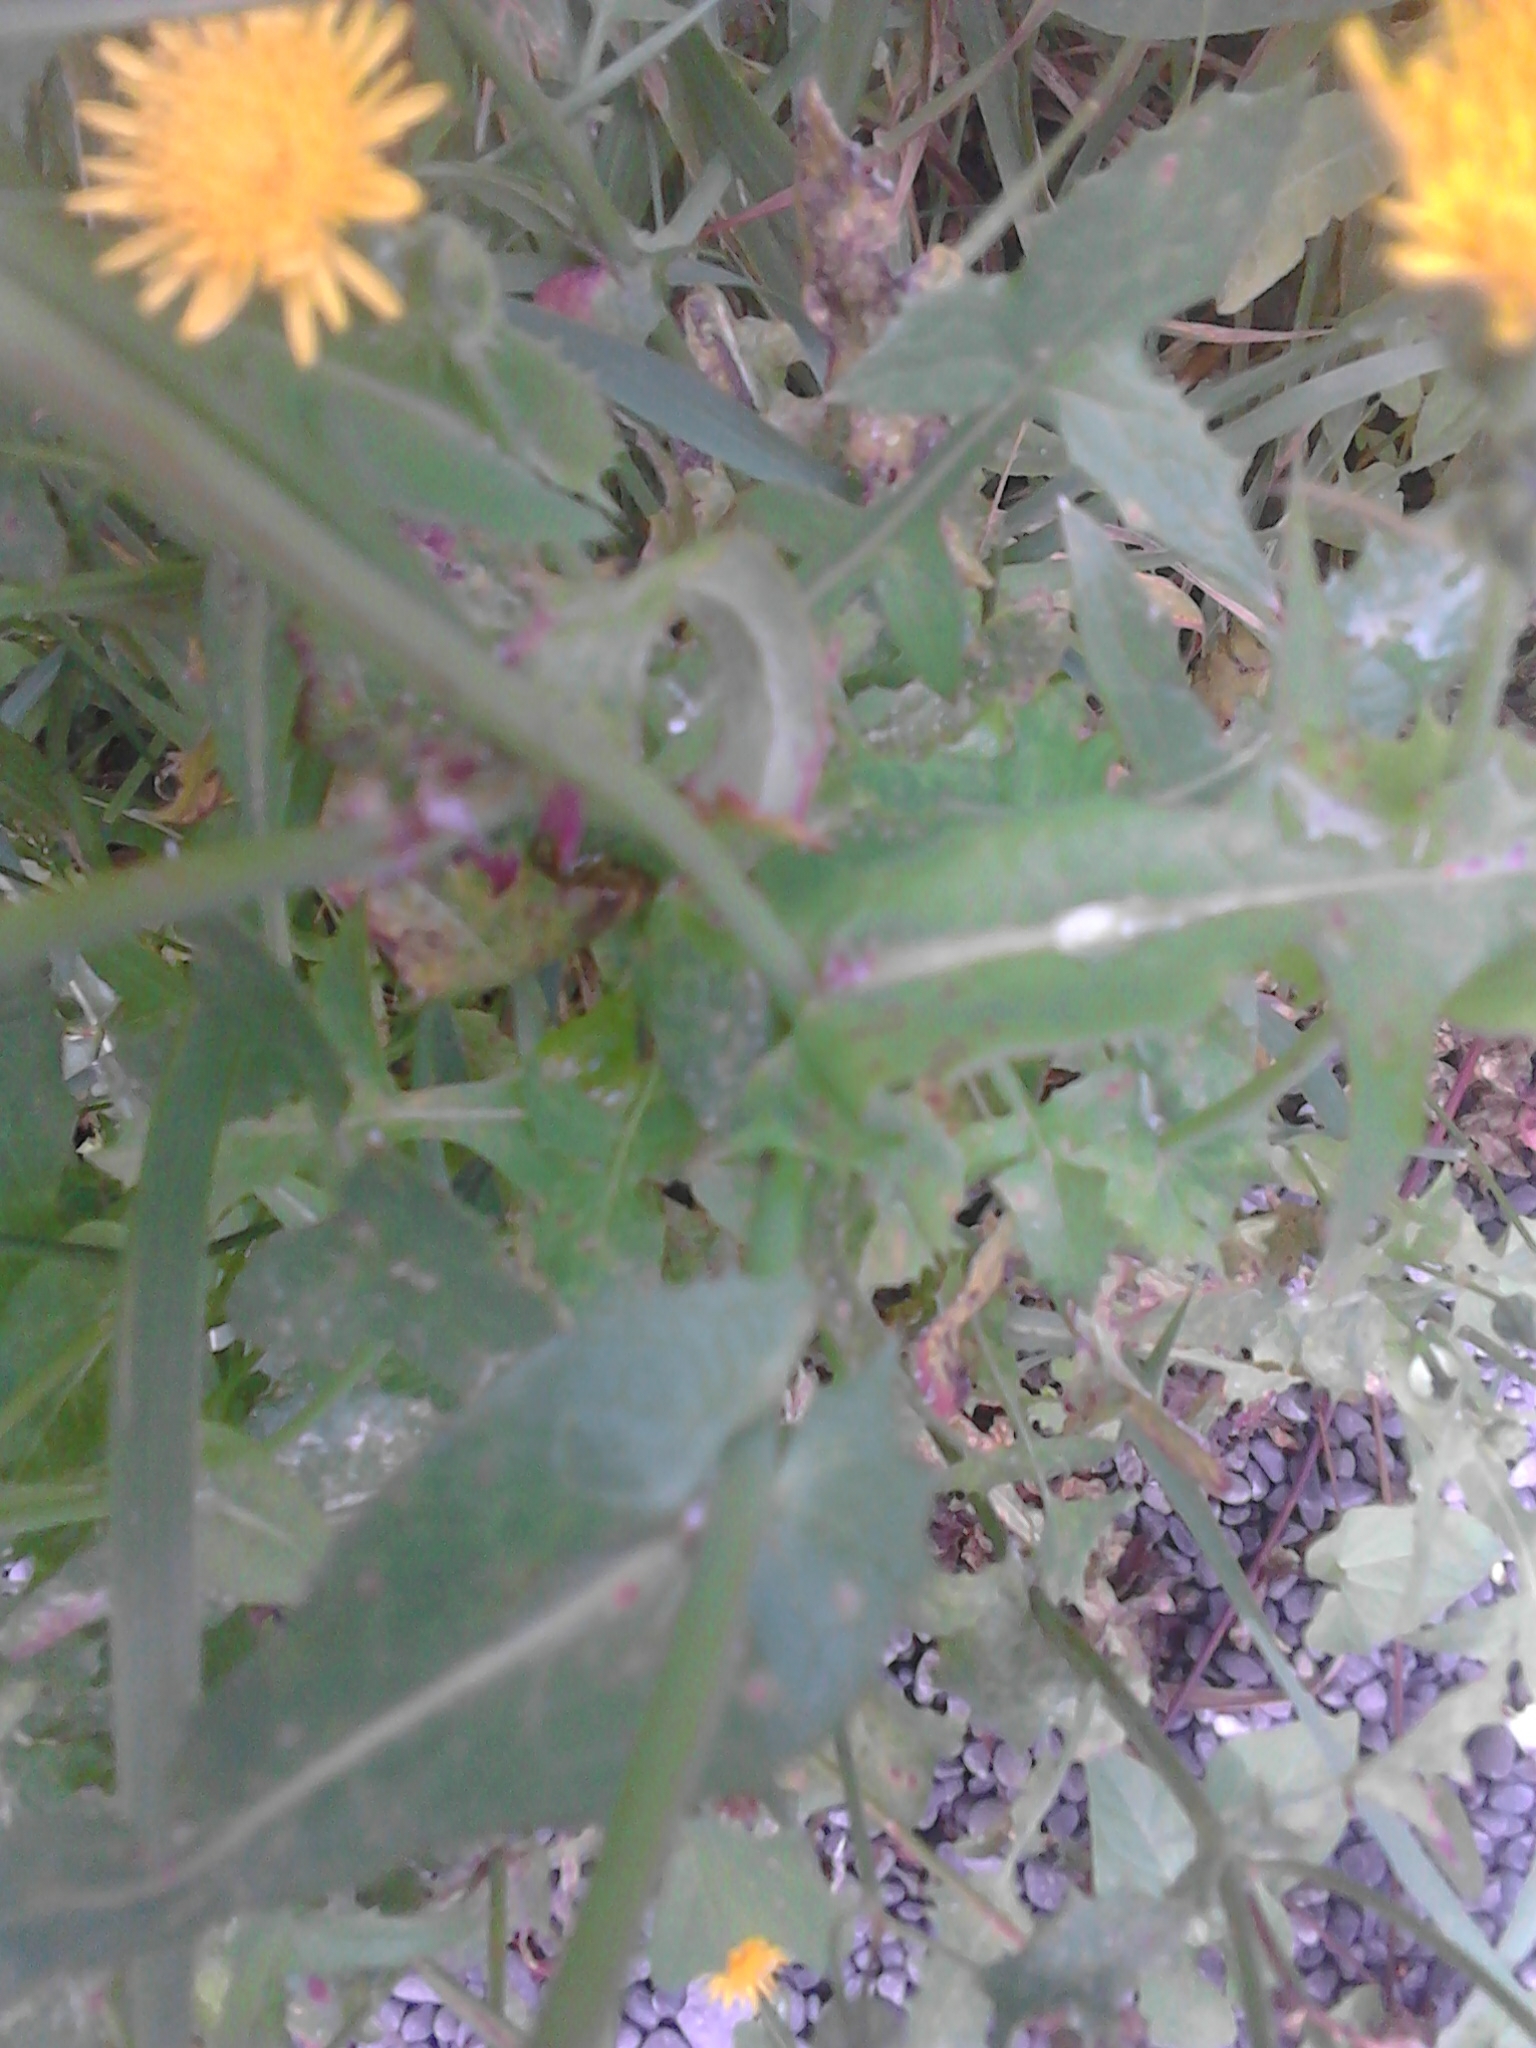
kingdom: Plantae
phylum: Tracheophyta
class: Magnoliopsida
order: Asterales
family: Asteraceae
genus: Sonchus
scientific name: Sonchus oleraceus
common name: Common sowthistle
